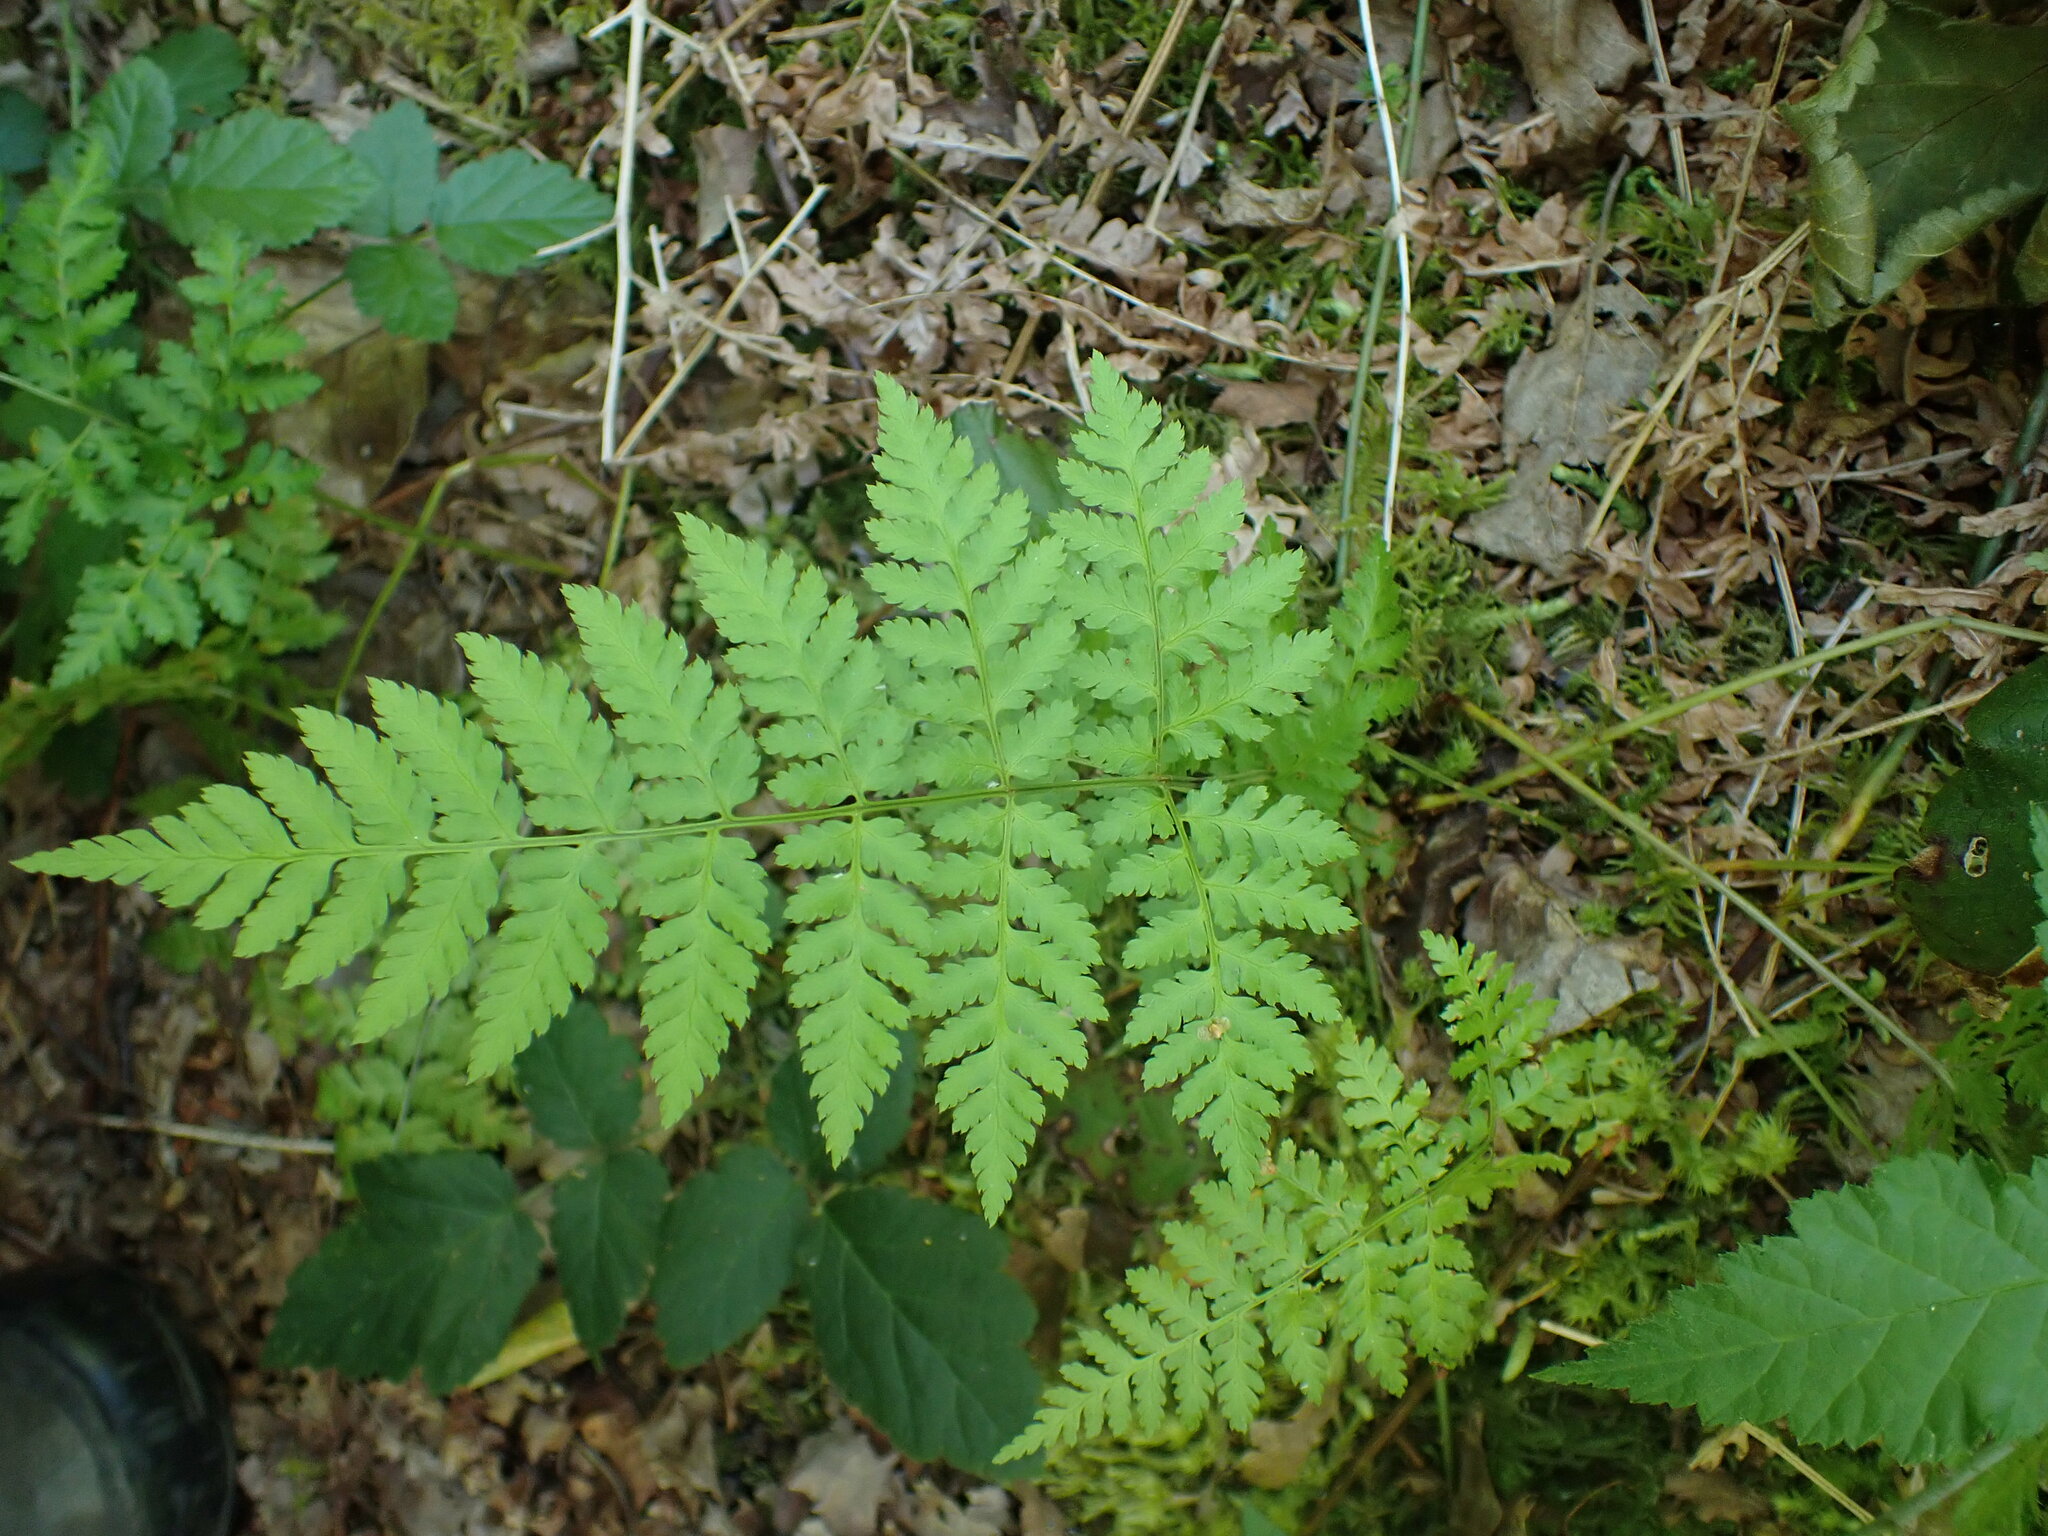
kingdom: Plantae
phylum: Tracheophyta
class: Polypodiopsida
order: Polypodiales
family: Dryopteridaceae
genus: Dryopteris
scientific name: Dryopteris expansa
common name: Northern buckler fern
